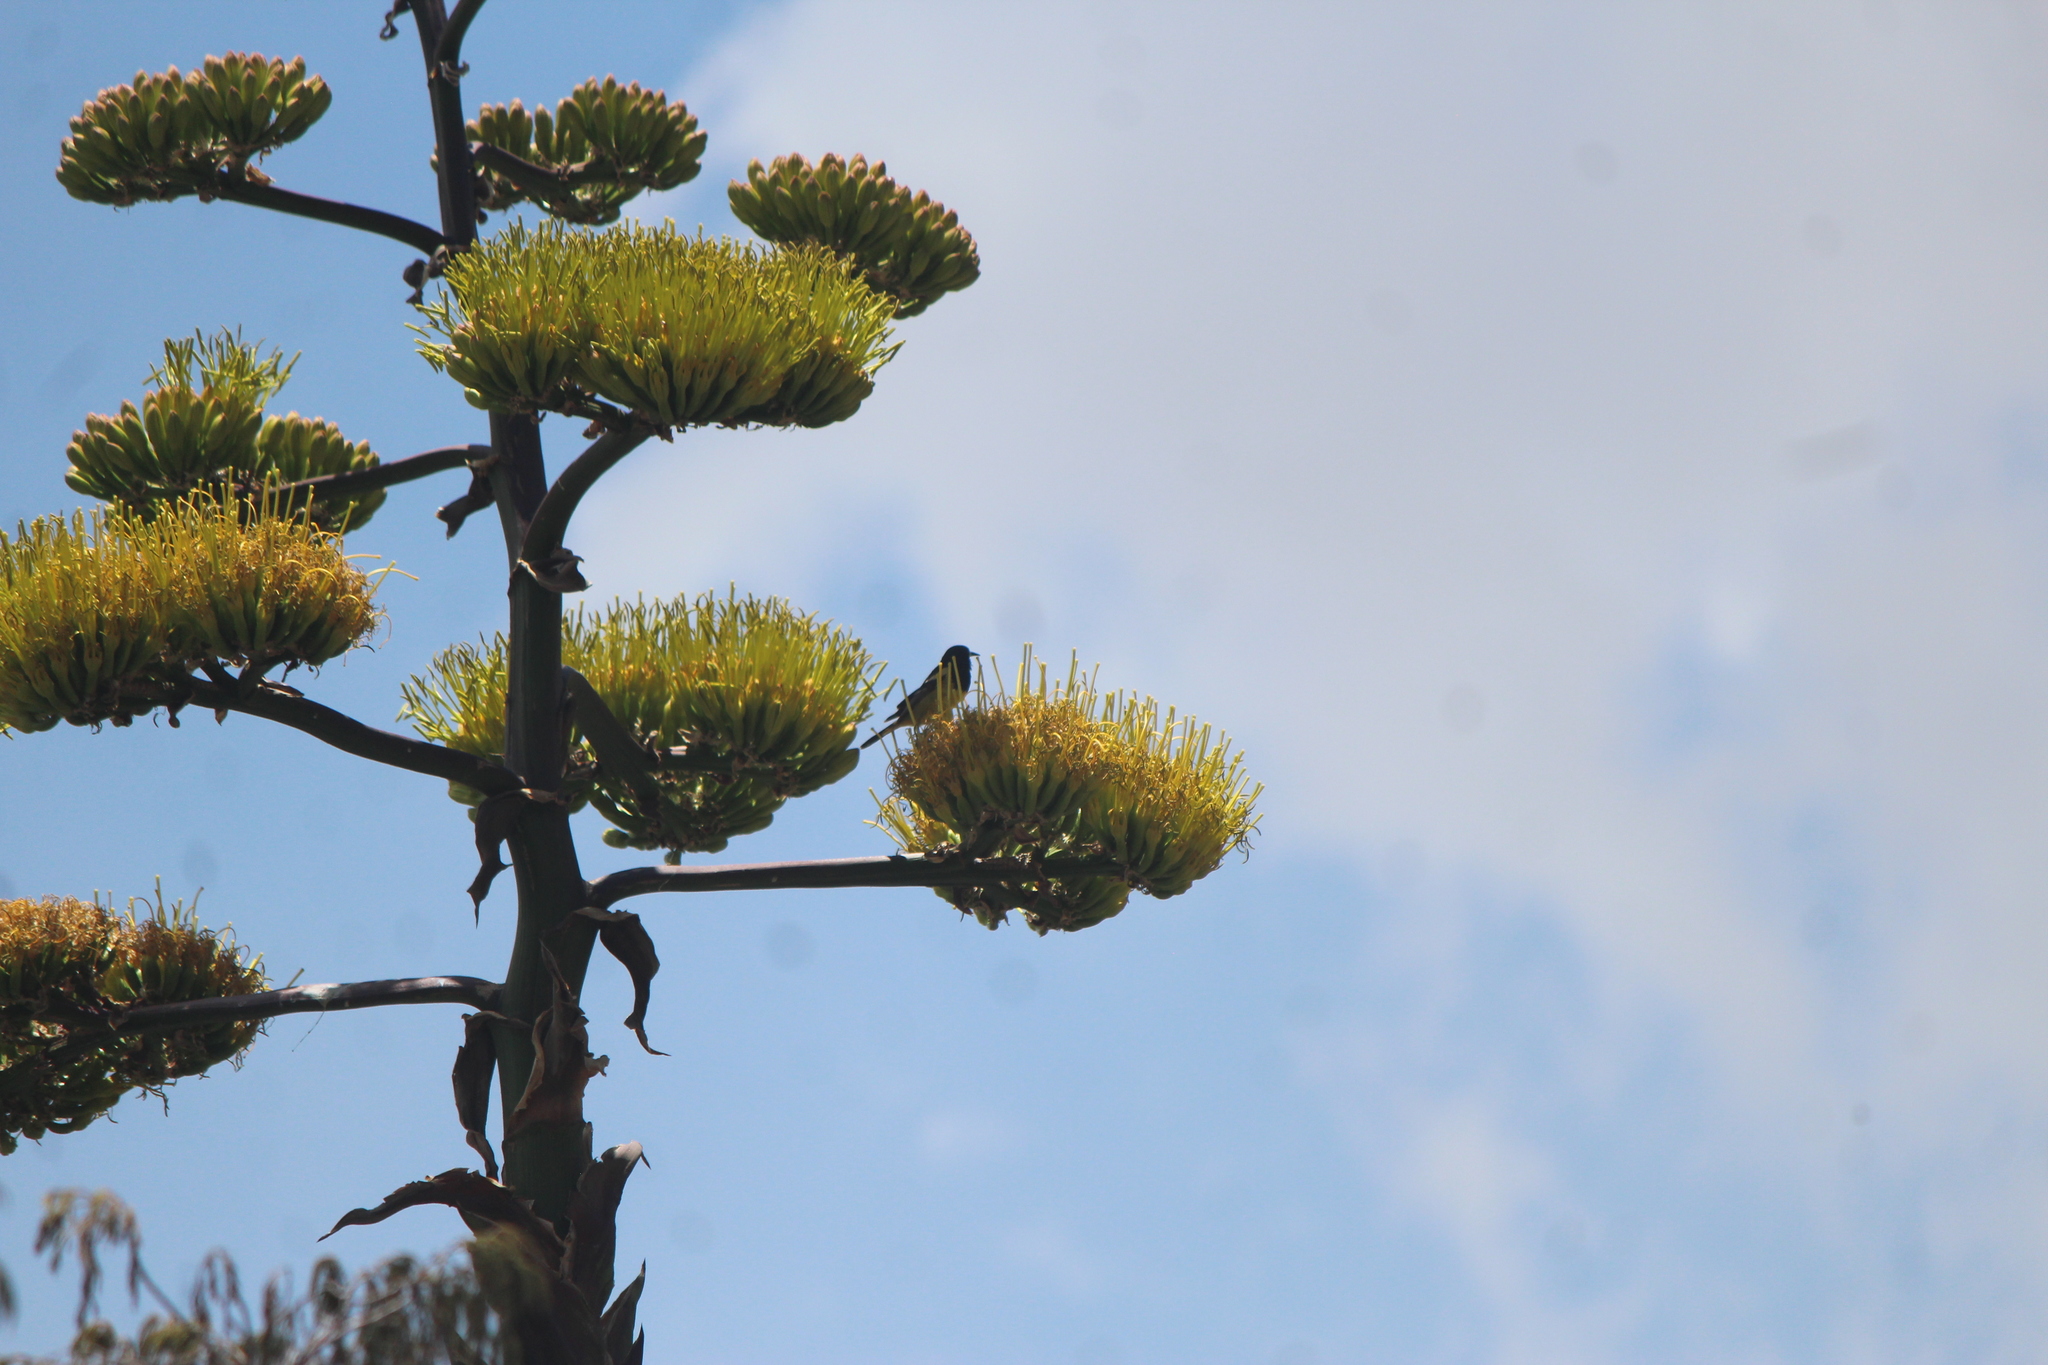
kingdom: Animalia
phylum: Chordata
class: Aves
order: Passeriformes
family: Icteridae
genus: Icterus
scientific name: Icterus parisorum
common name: Scott's oriole
